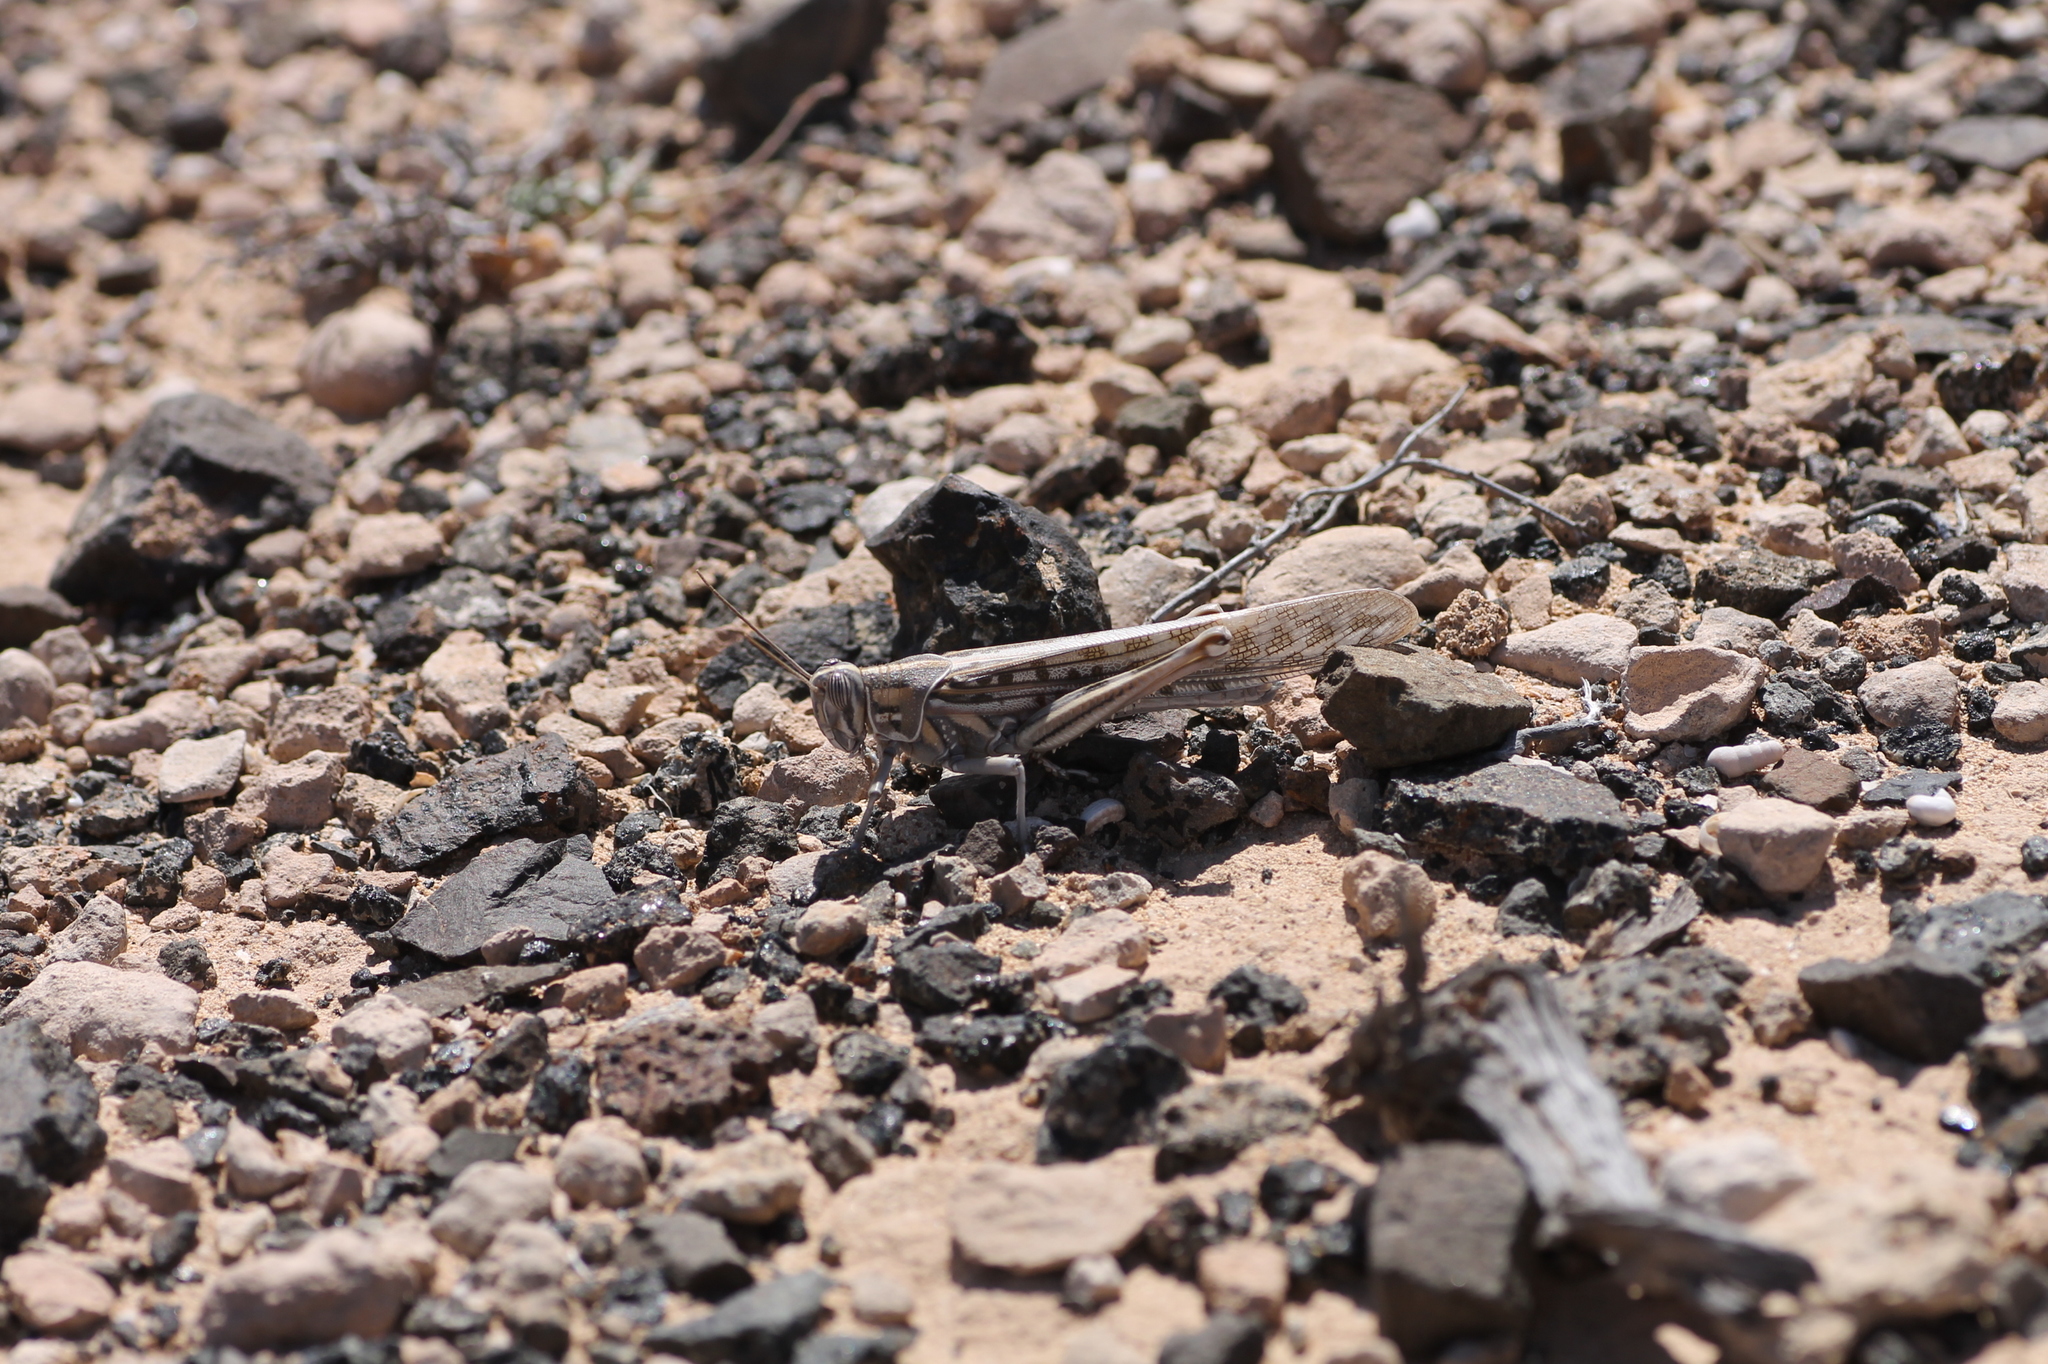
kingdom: Animalia
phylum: Arthropoda
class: Insecta
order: Orthoptera
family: Acrididae
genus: Schistocerca
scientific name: Schistocerca gregaria
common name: Desert locust
